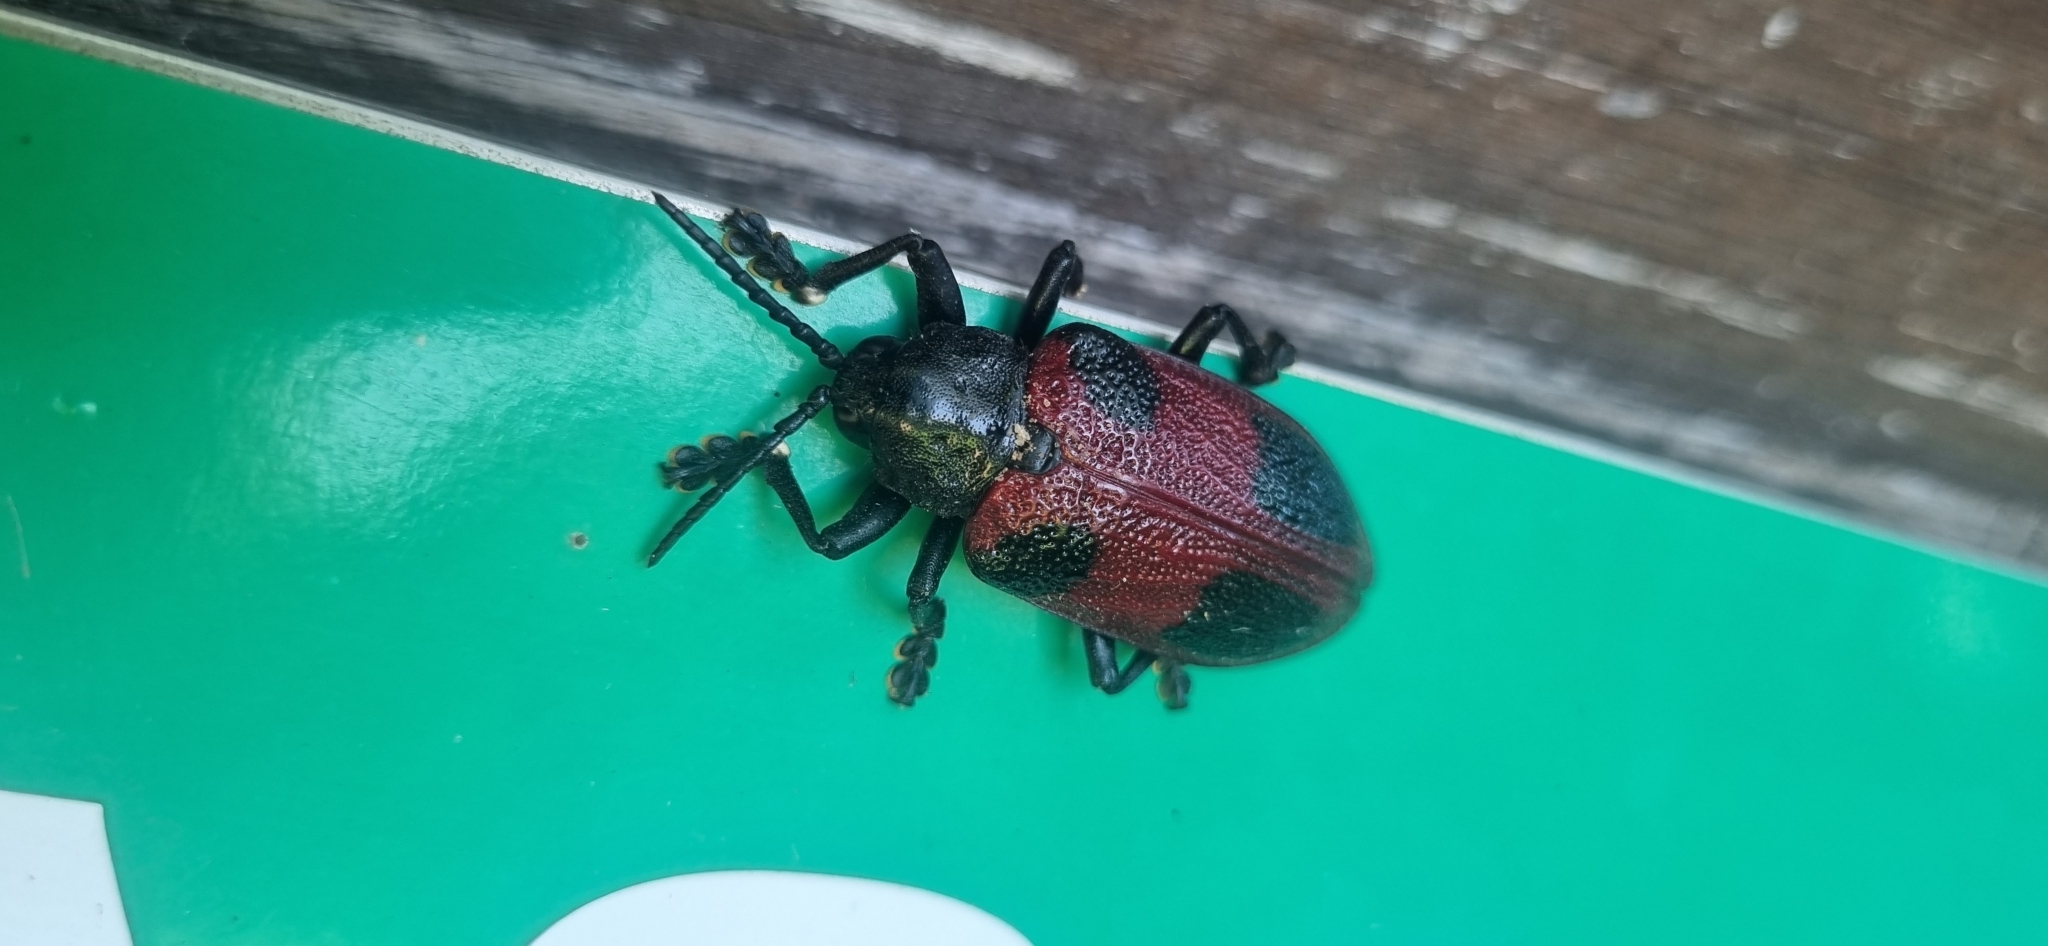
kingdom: Animalia
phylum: Arthropoda
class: Insecta
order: Coleoptera
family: Chrysomelidae
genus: Coraliomela
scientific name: Coraliomela quadrimaculata
